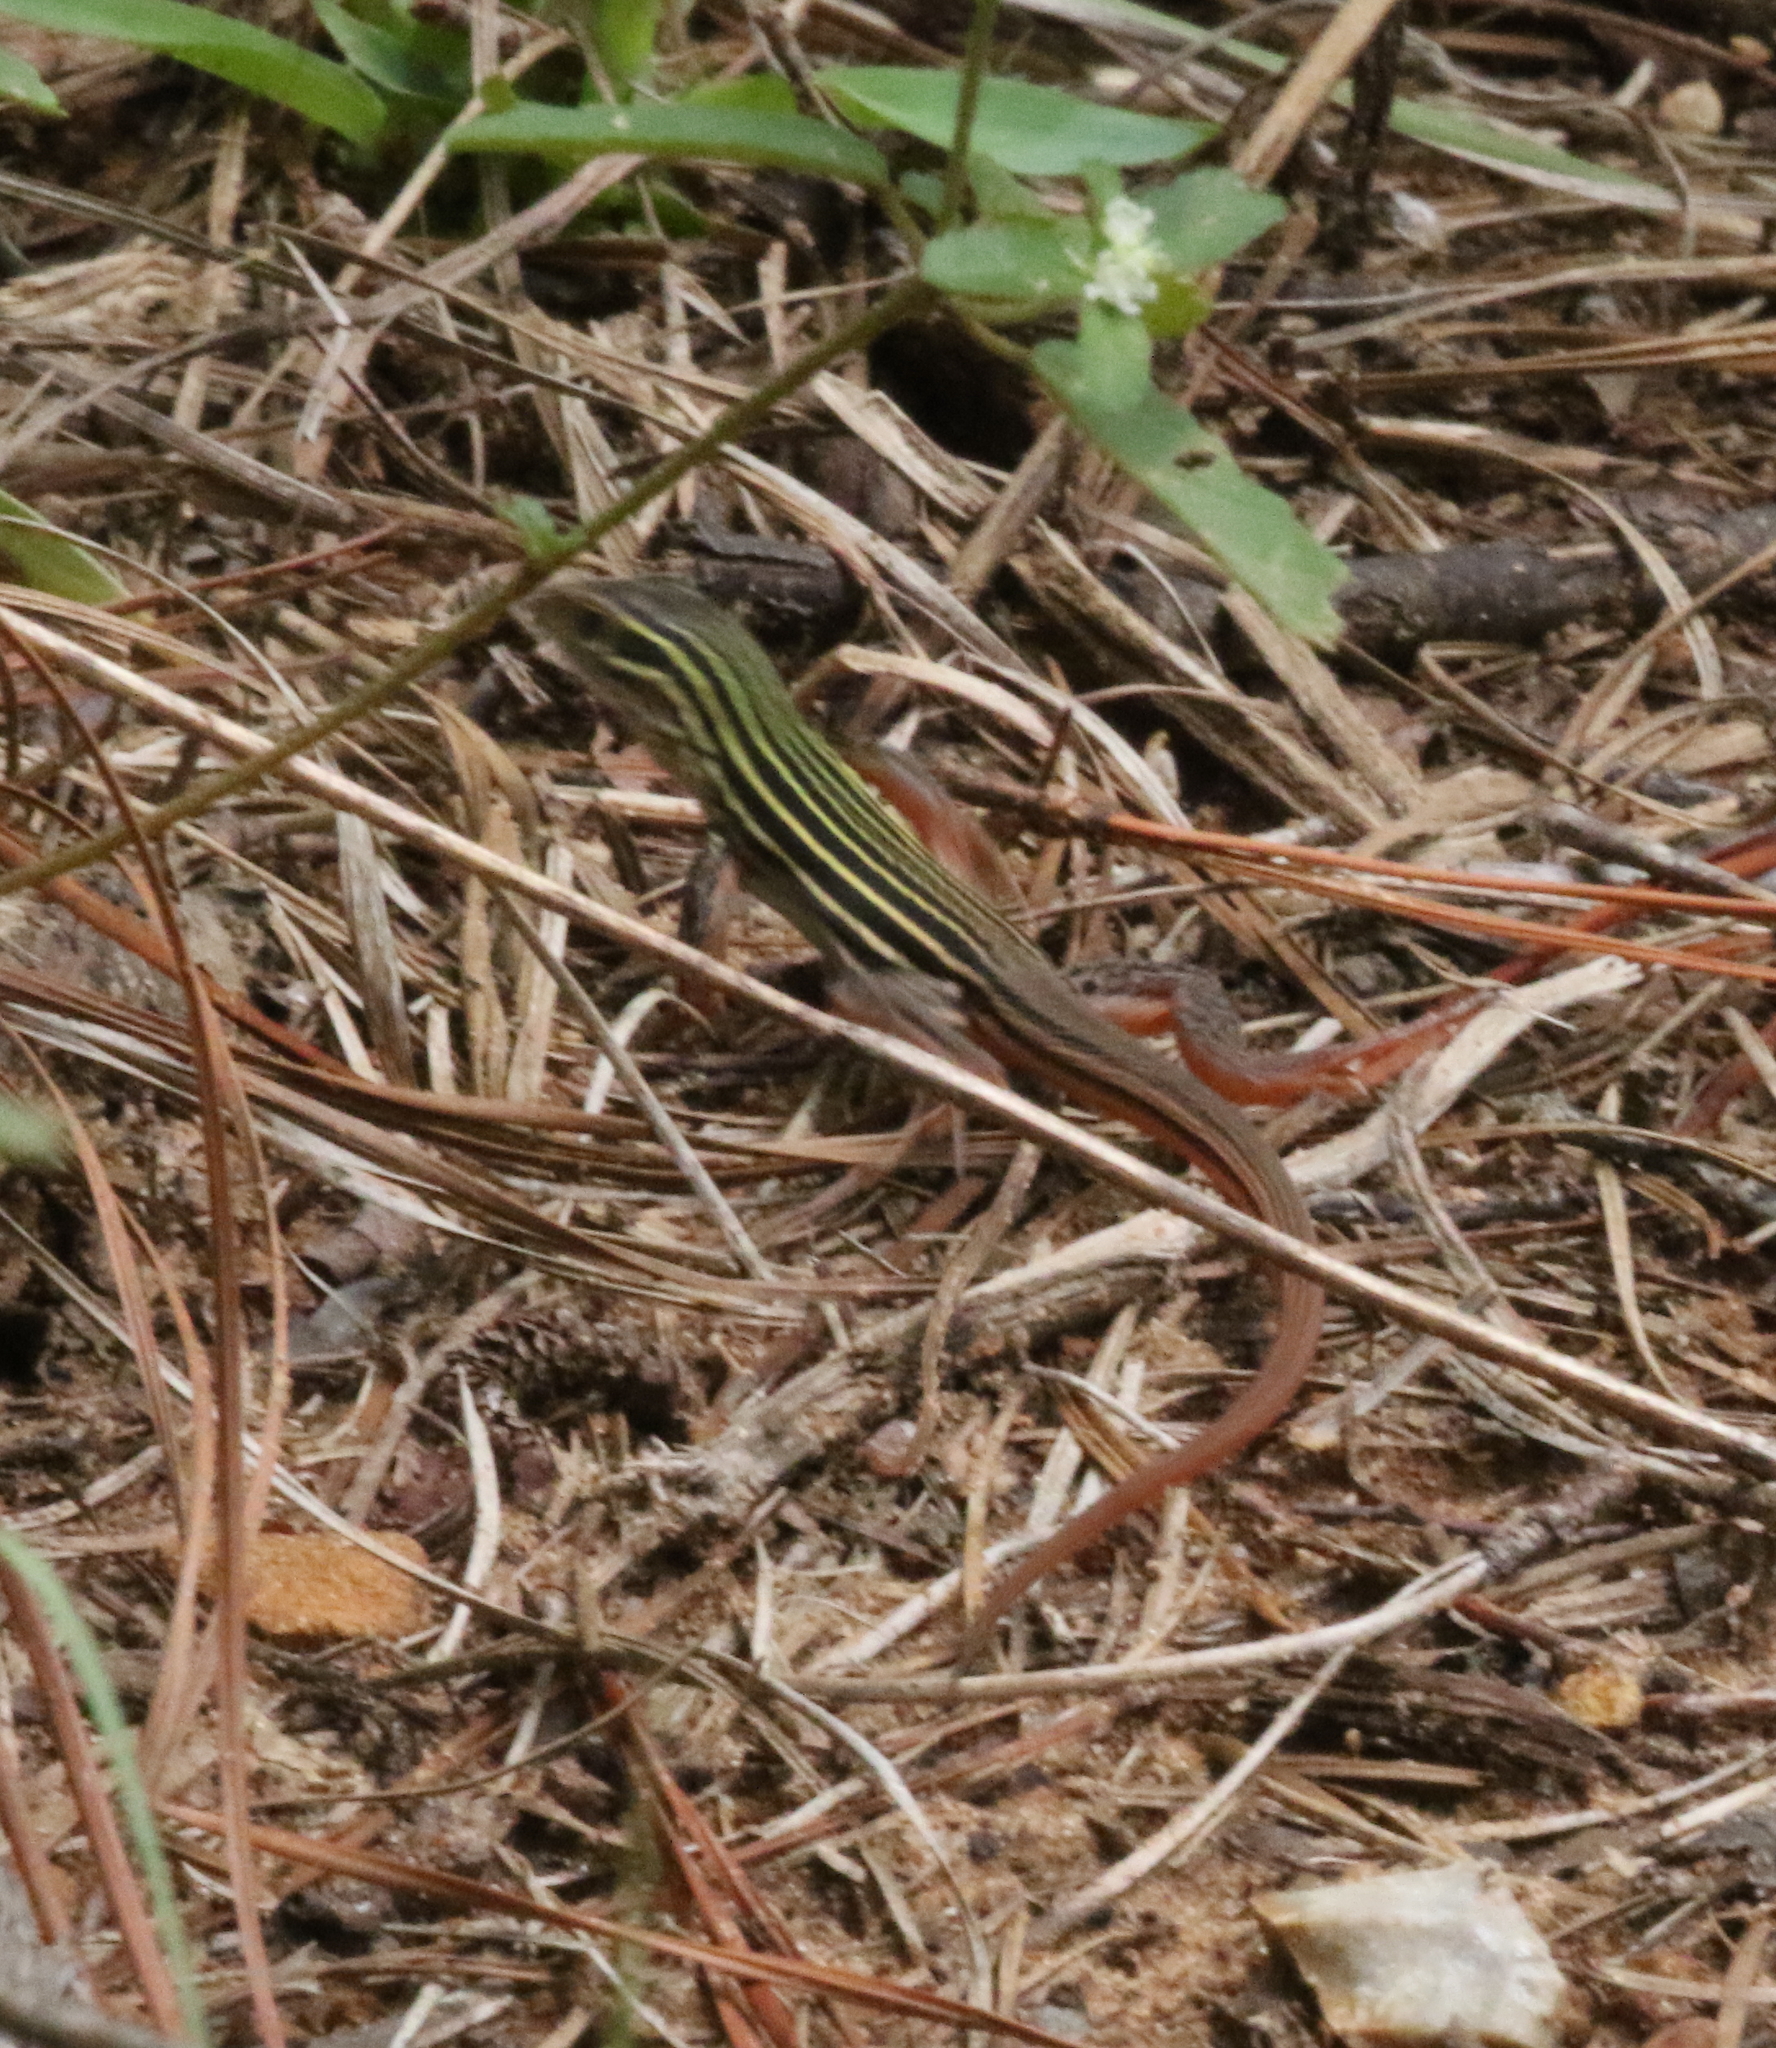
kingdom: Animalia
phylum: Chordata
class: Squamata
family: Teiidae
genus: Aspidoscelis
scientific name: Aspidoscelis gularis
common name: Eastern spotted whiptail
